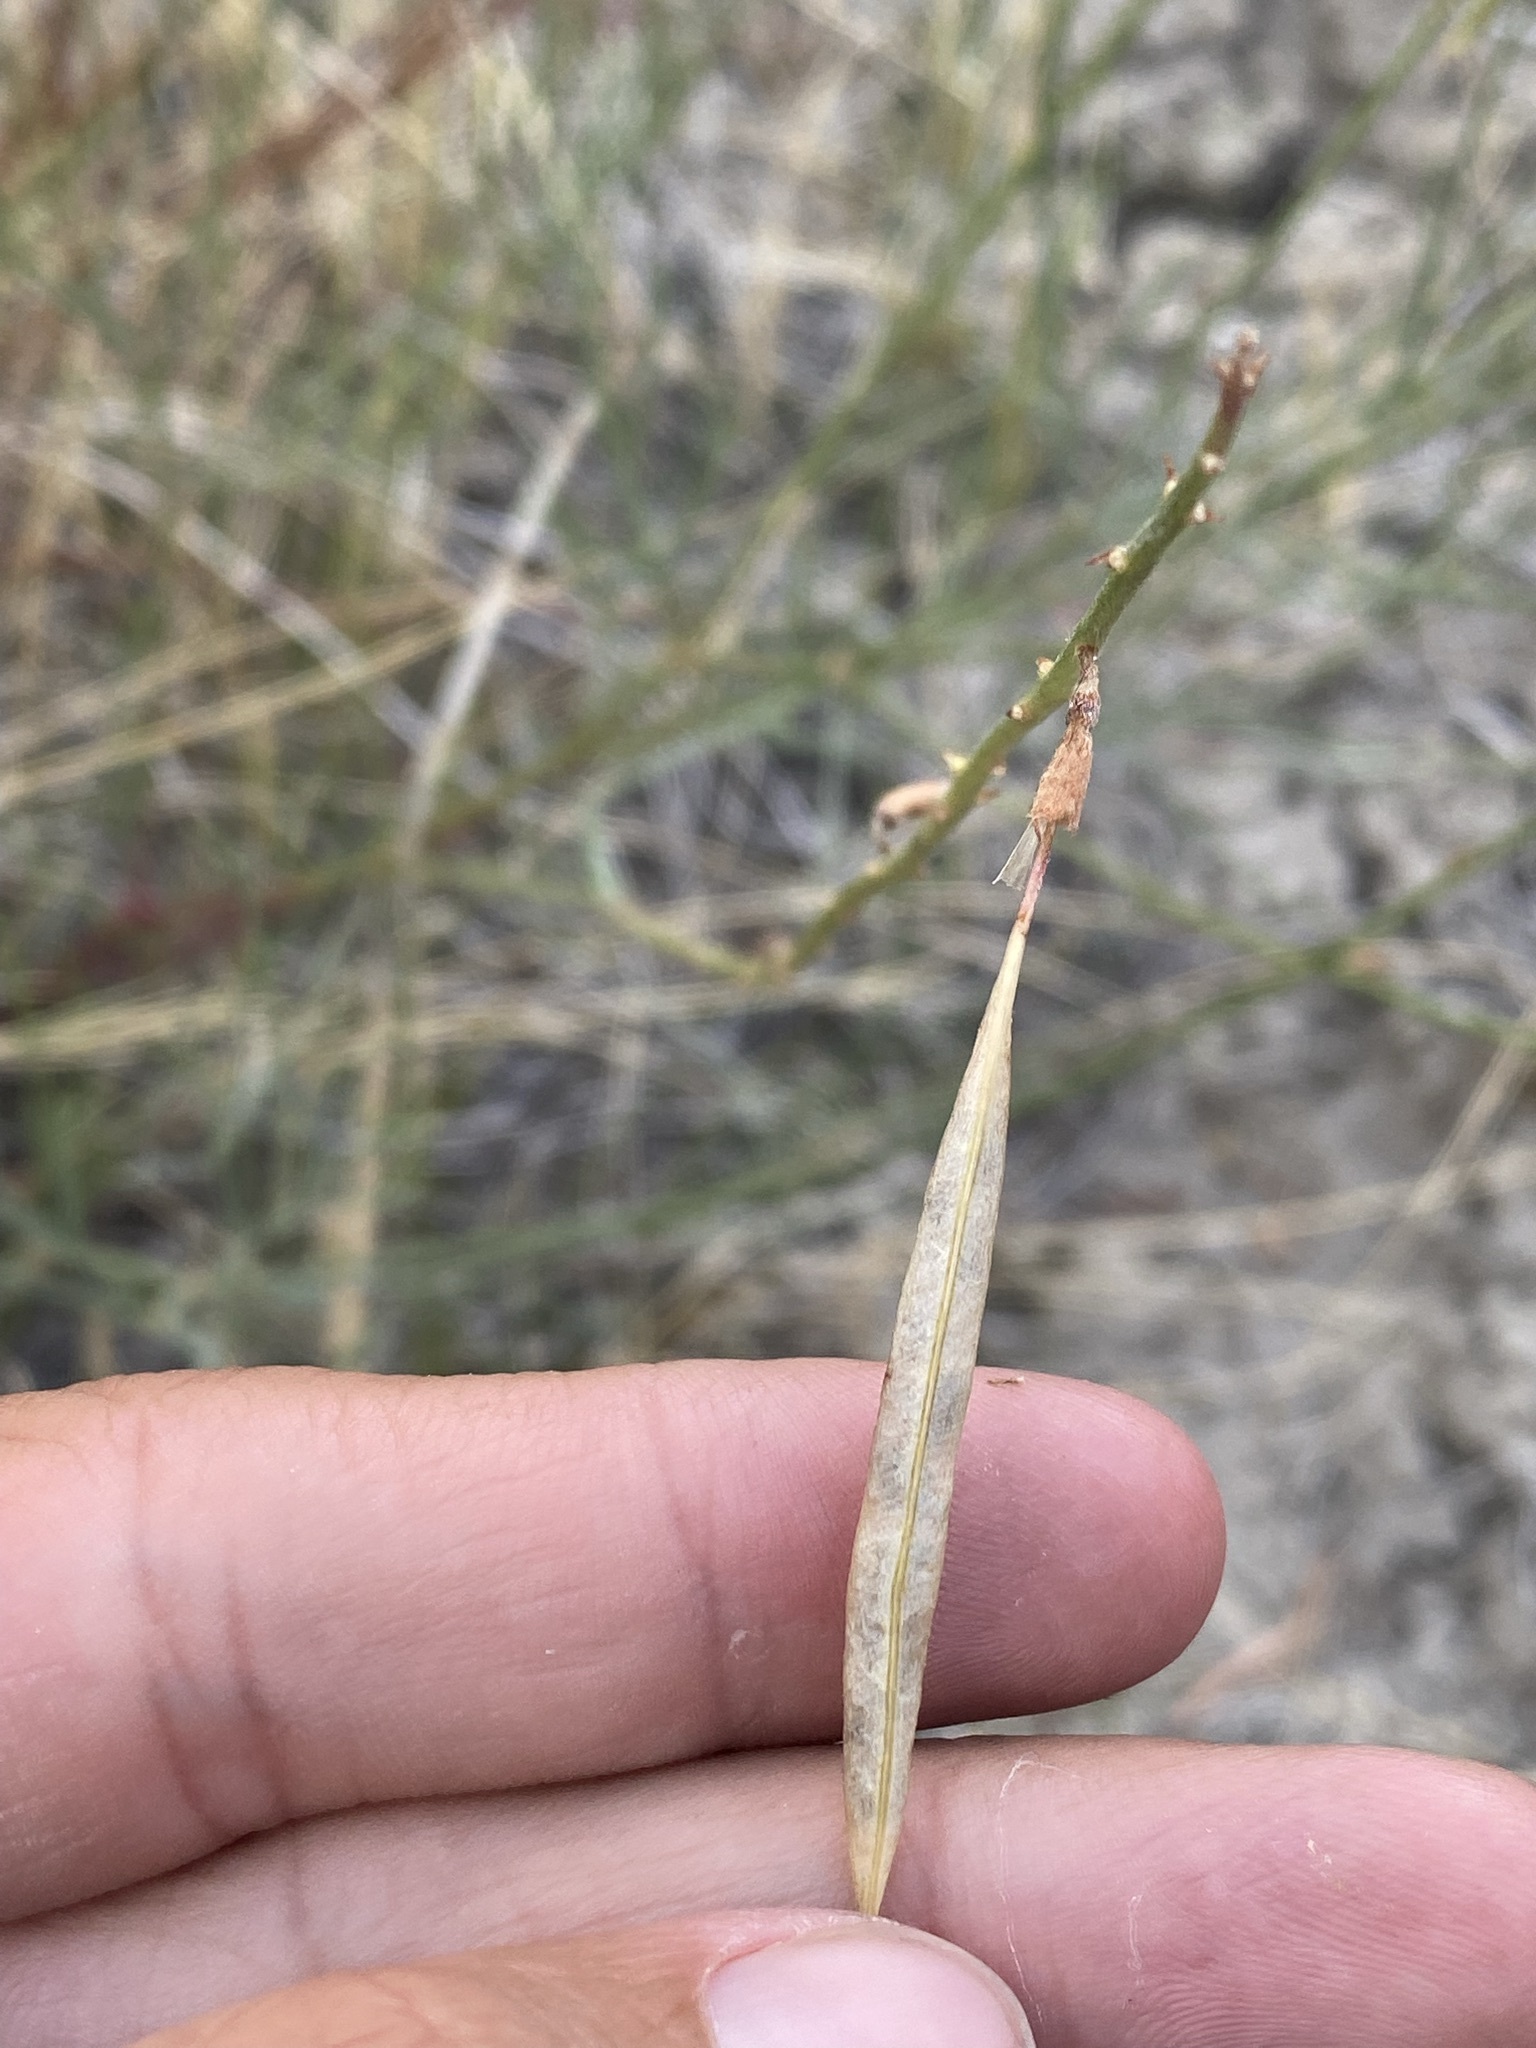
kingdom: Plantae
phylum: Tracheophyta
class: Magnoliopsida
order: Fabales
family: Fabaceae
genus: Astragalus
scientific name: Astragalus lonchocarpus
